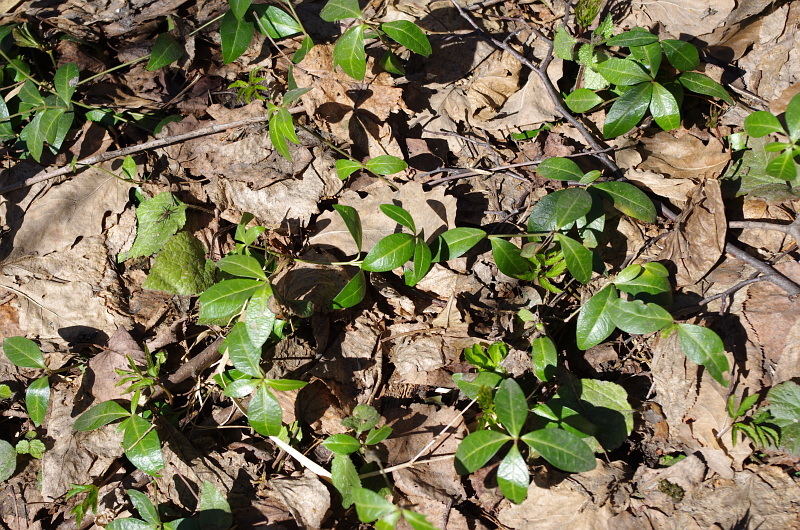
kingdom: Plantae
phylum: Tracheophyta
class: Magnoliopsida
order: Gentianales
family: Apocynaceae
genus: Vinca
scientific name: Vinca minor
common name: Lesser periwinkle
